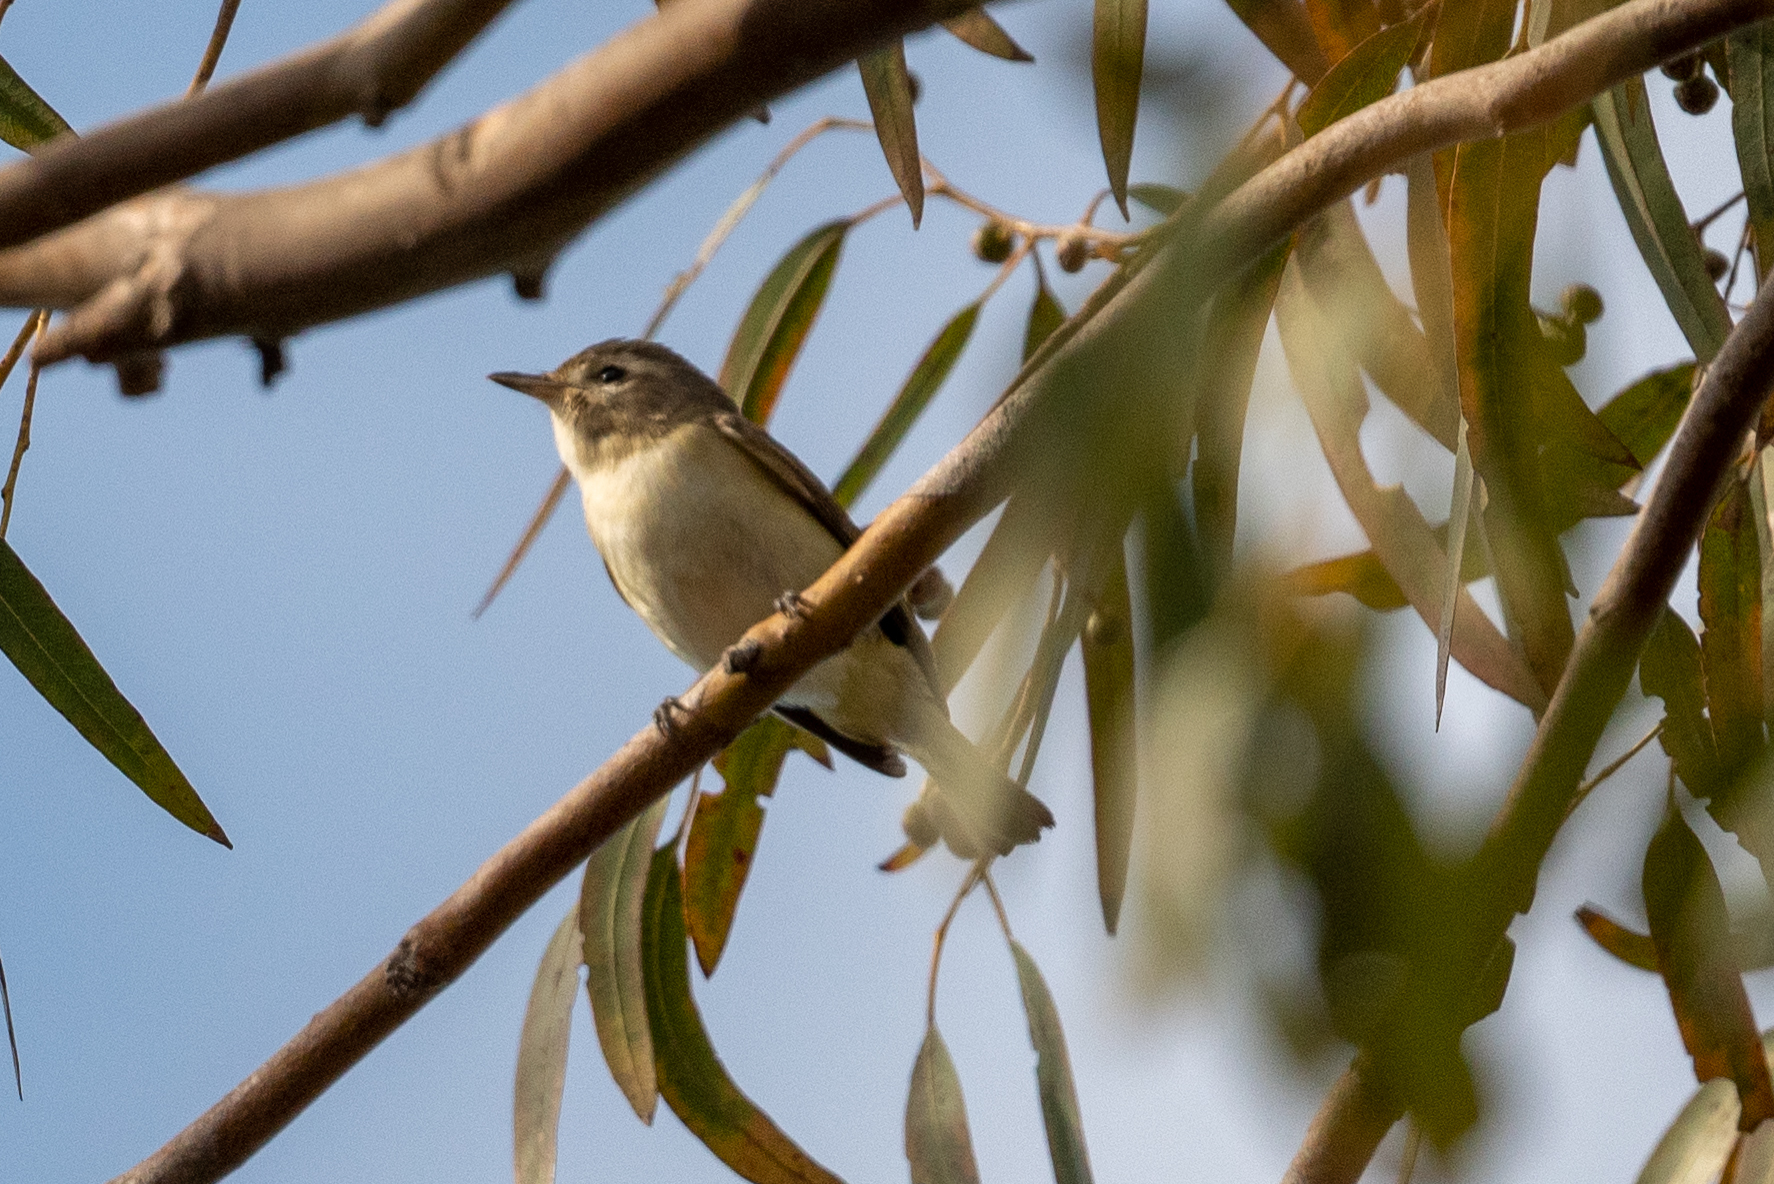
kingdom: Animalia
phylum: Chordata
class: Aves
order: Passeriformes
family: Vireonidae
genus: Vireo
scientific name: Vireo gilvus
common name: Warbling vireo
